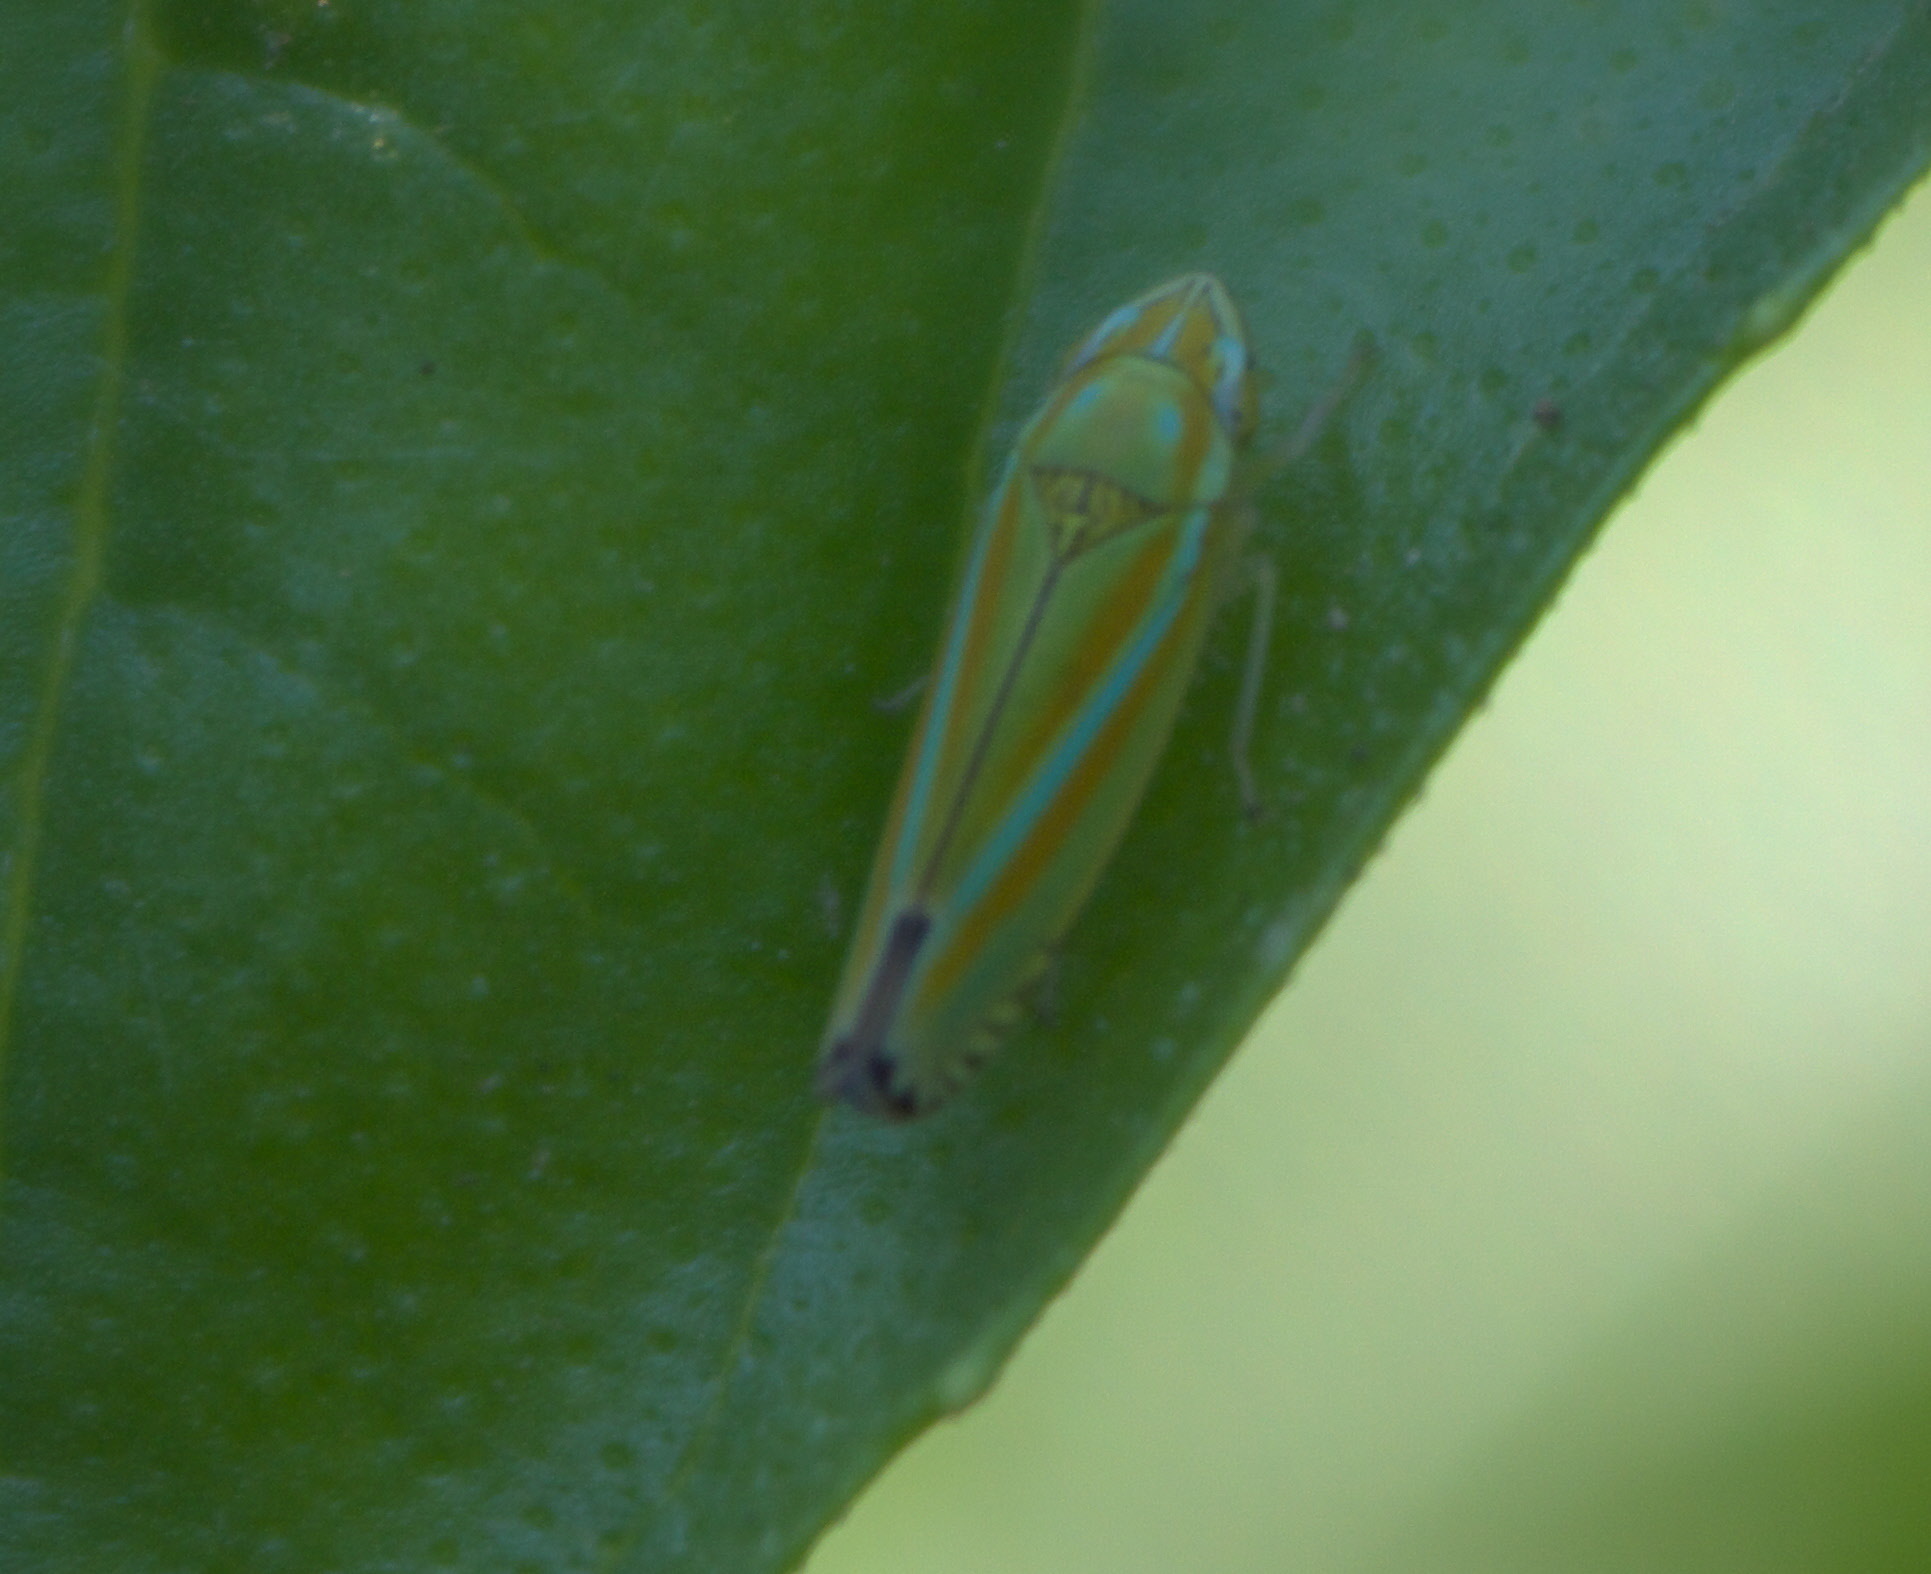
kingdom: Animalia
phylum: Arthropoda
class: Insecta
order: Hemiptera
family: Cicadellidae
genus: Graphocephala
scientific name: Graphocephala versuta
